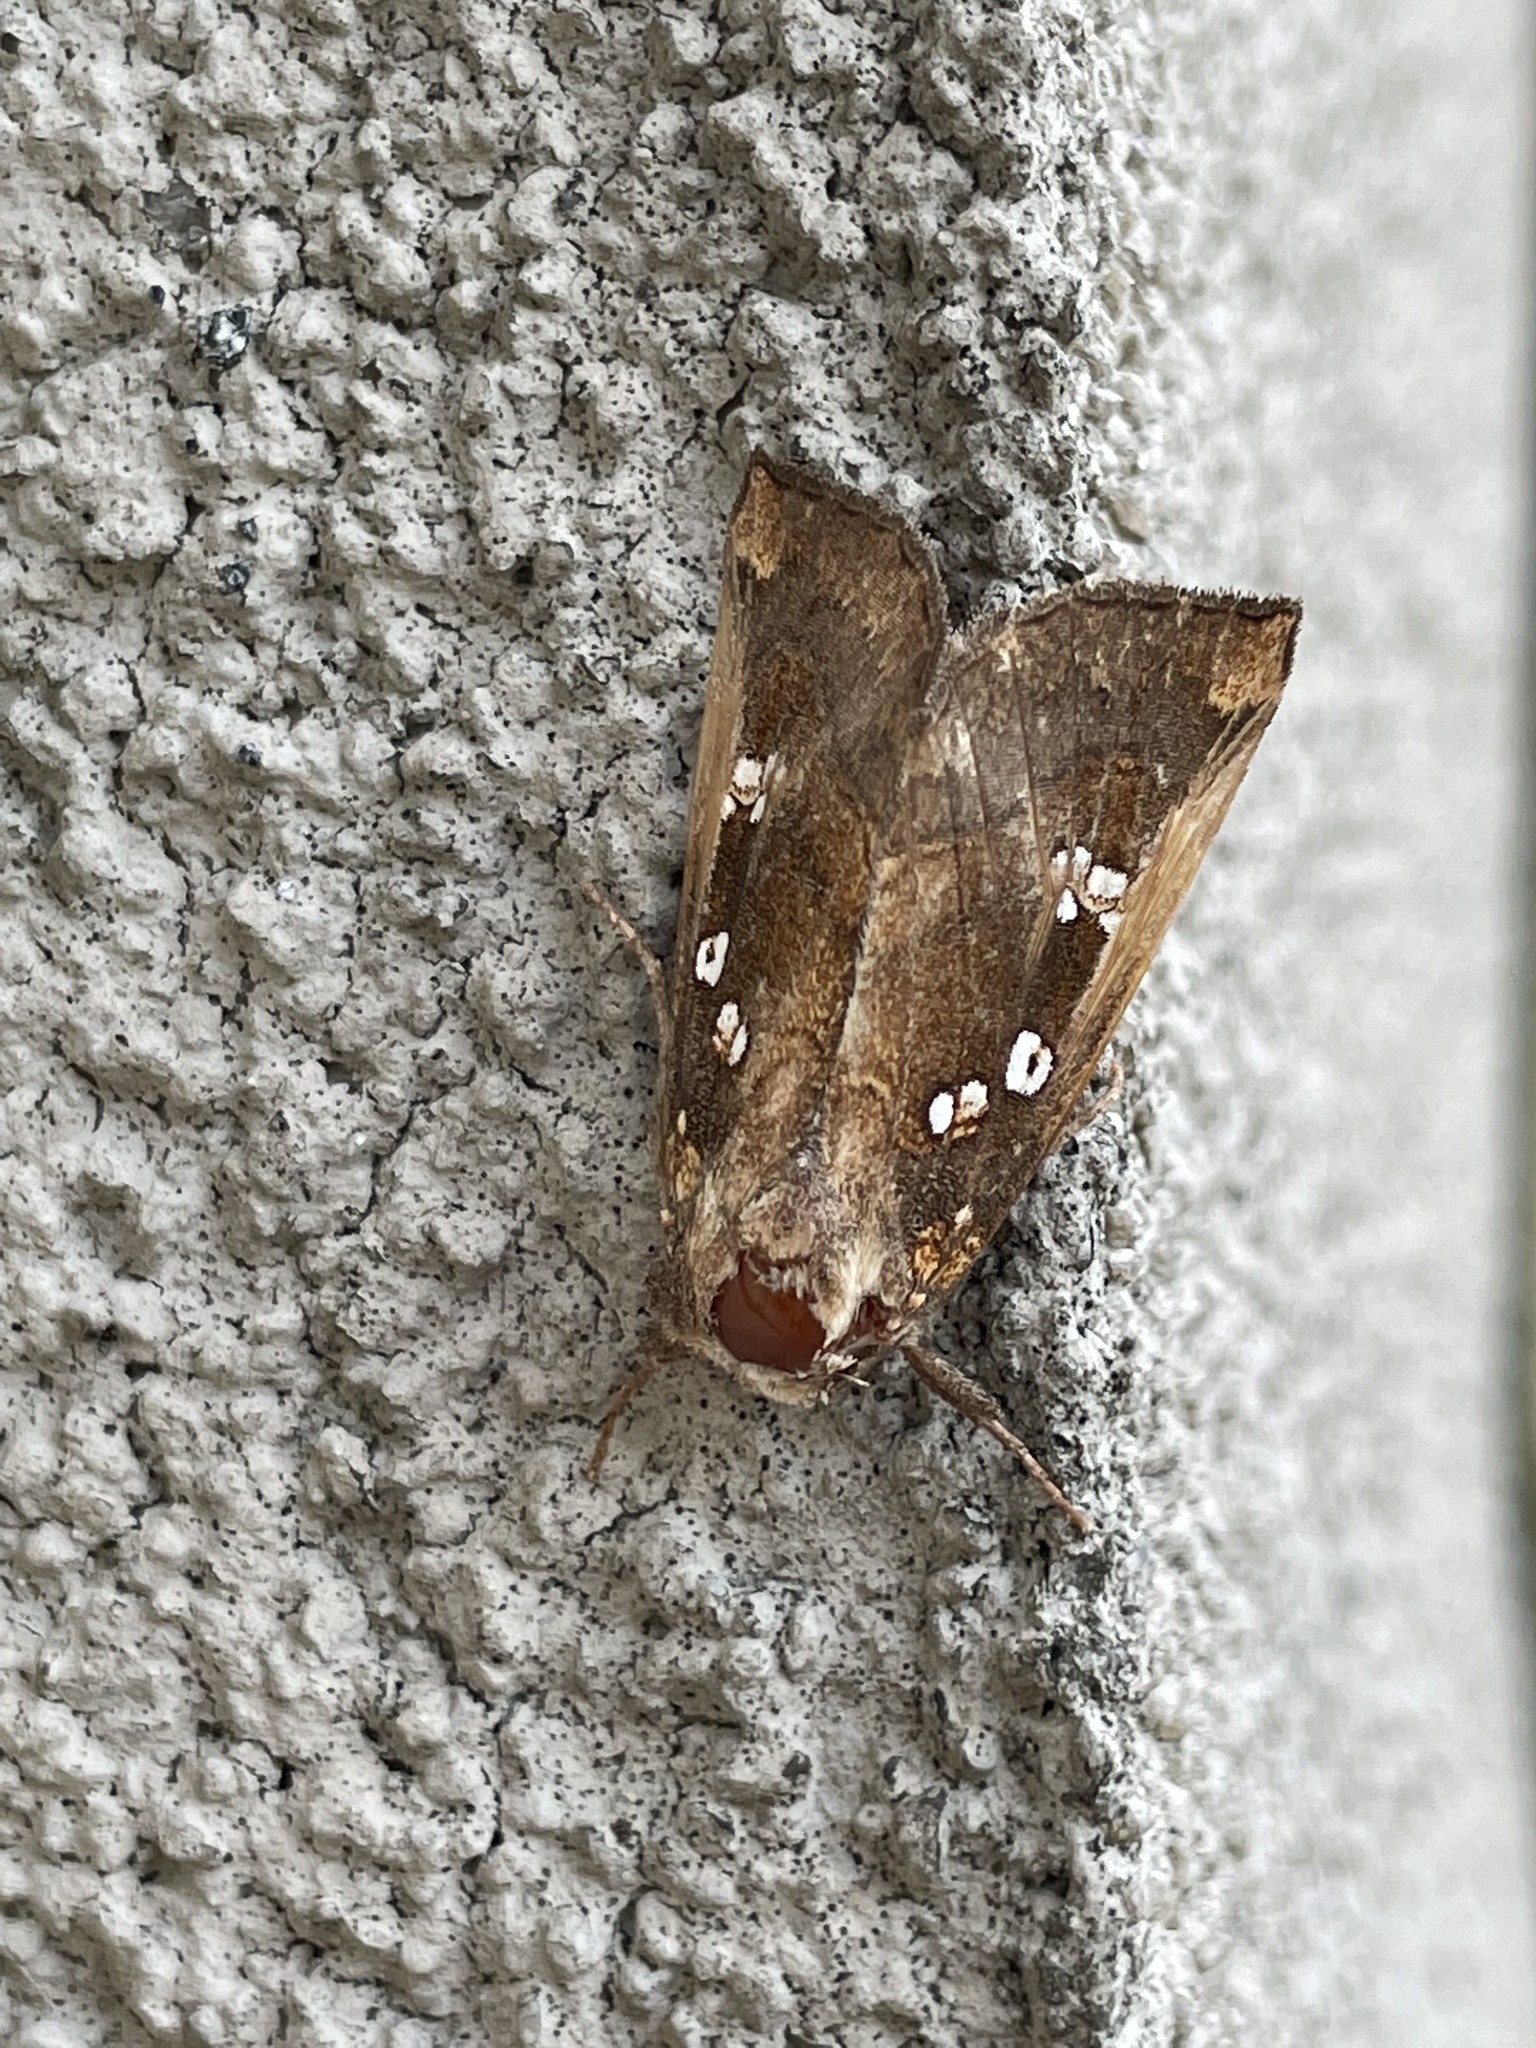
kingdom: Animalia
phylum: Arthropoda
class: Insecta
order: Lepidoptera
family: Noctuidae
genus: Papaipema
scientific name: Papaipema duovata
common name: Seaside golden borer moth
